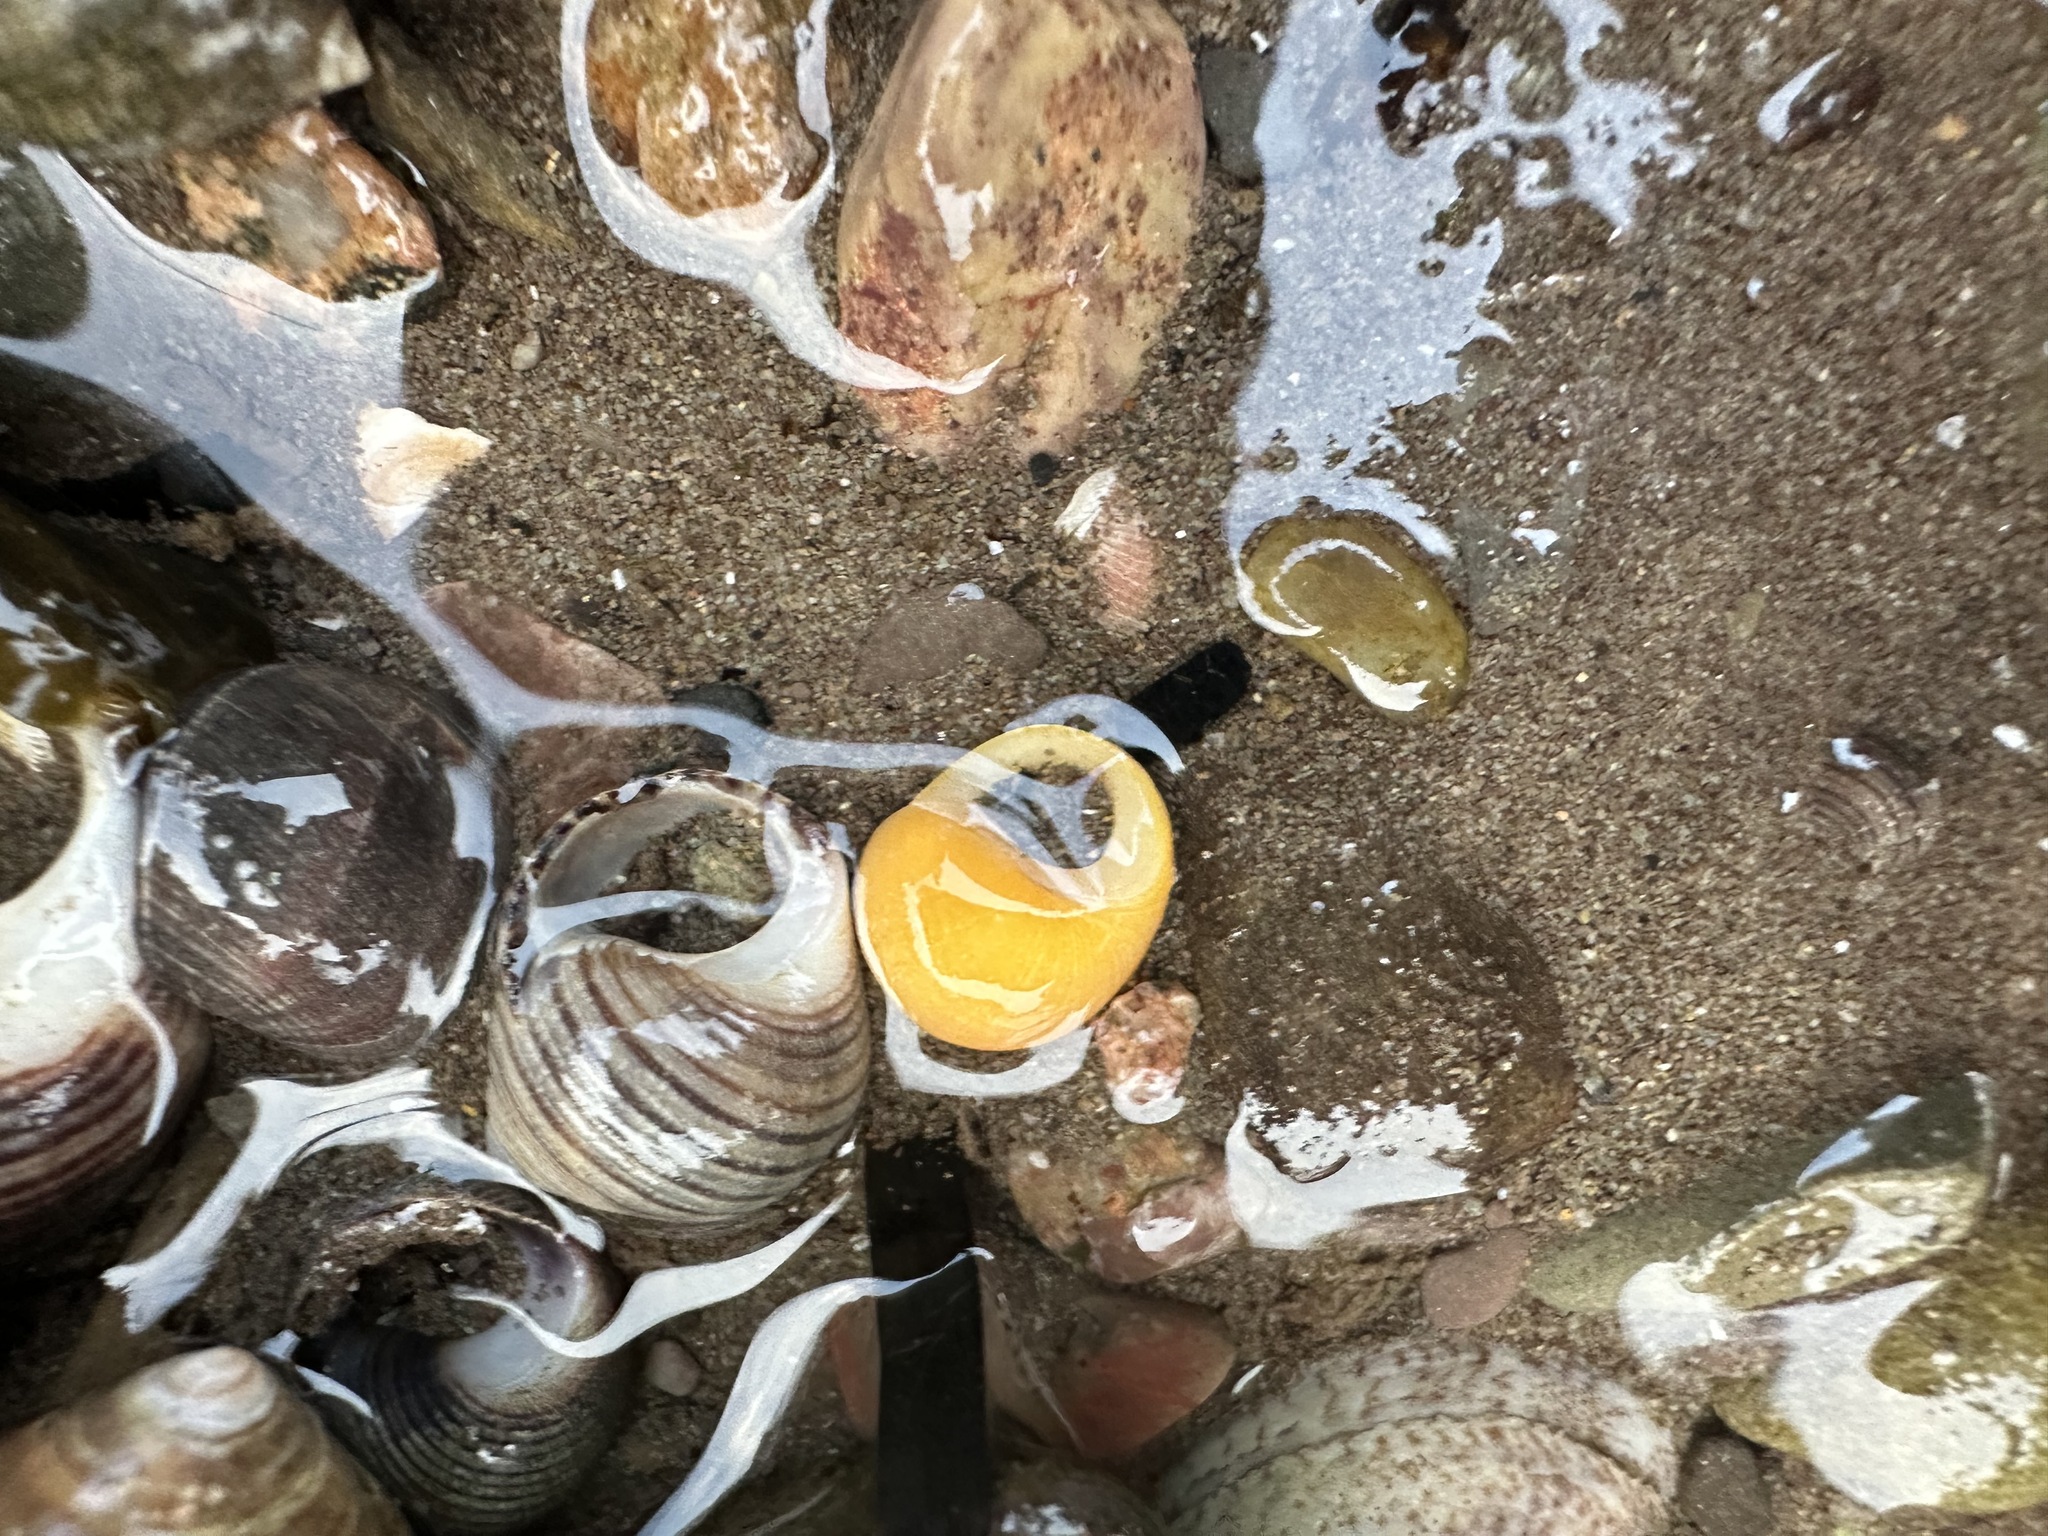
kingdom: Animalia
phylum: Mollusca
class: Gastropoda
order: Littorinimorpha
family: Littorinidae
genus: Littorina
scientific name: Littorina obtusata
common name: Flat periwinkle
